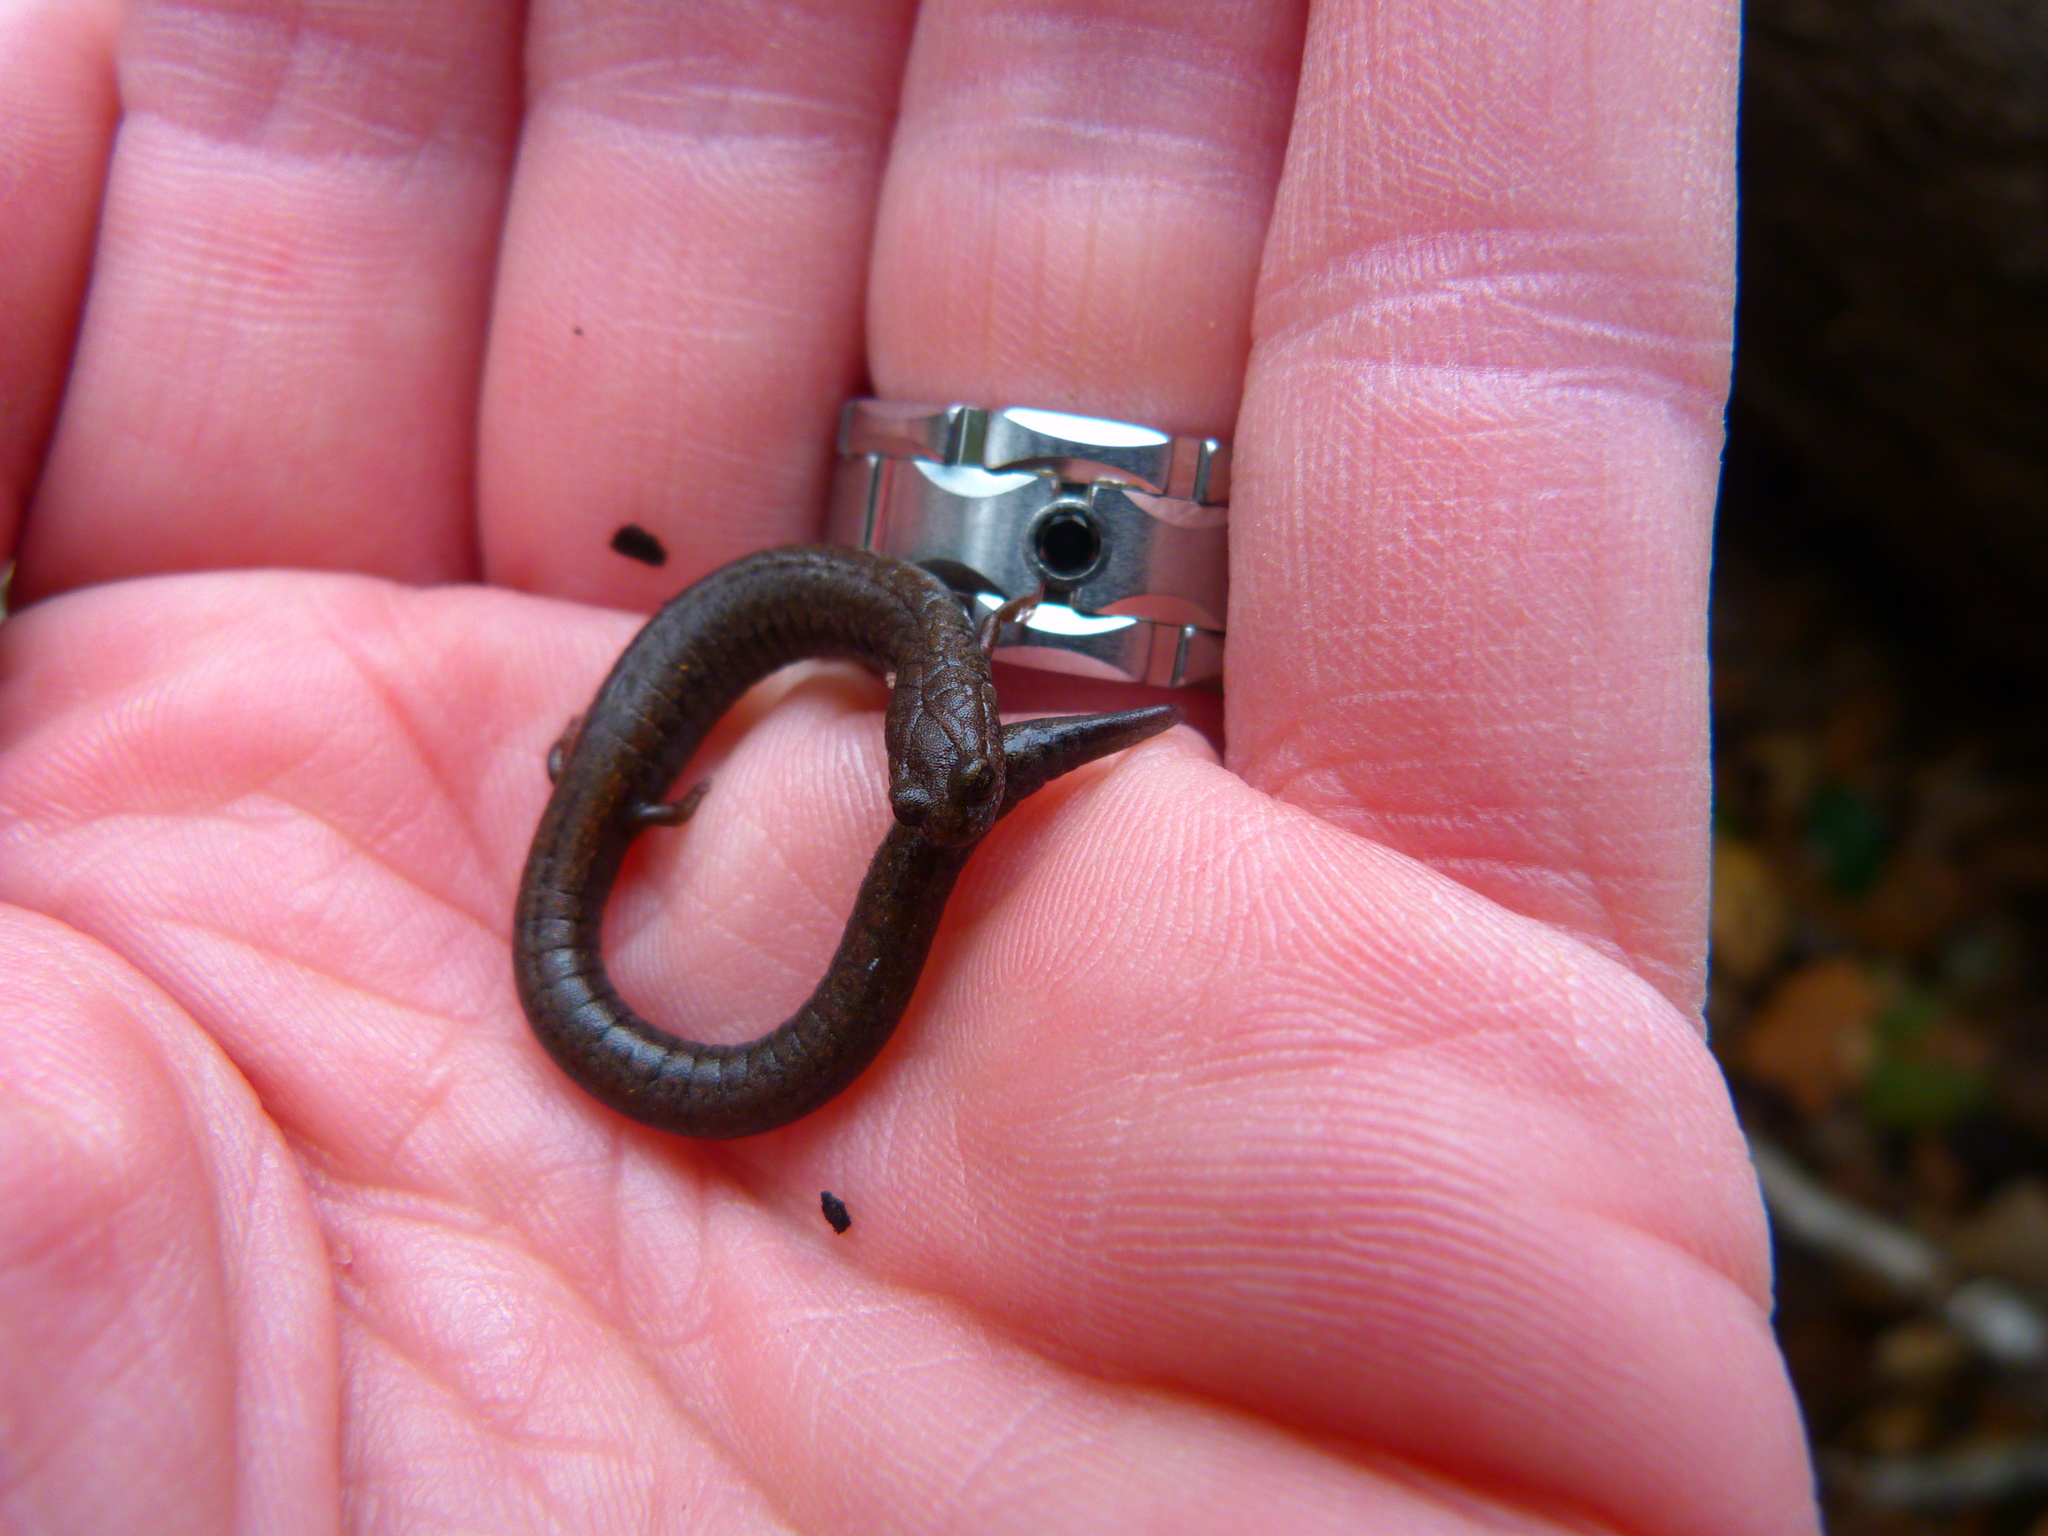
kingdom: Animalia
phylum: Chordata
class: Amphibia
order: Caudata
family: Plethodontidae
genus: Batrachoseps
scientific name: Batrachoseps nigriventris
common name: Black-bellied slender salamander
